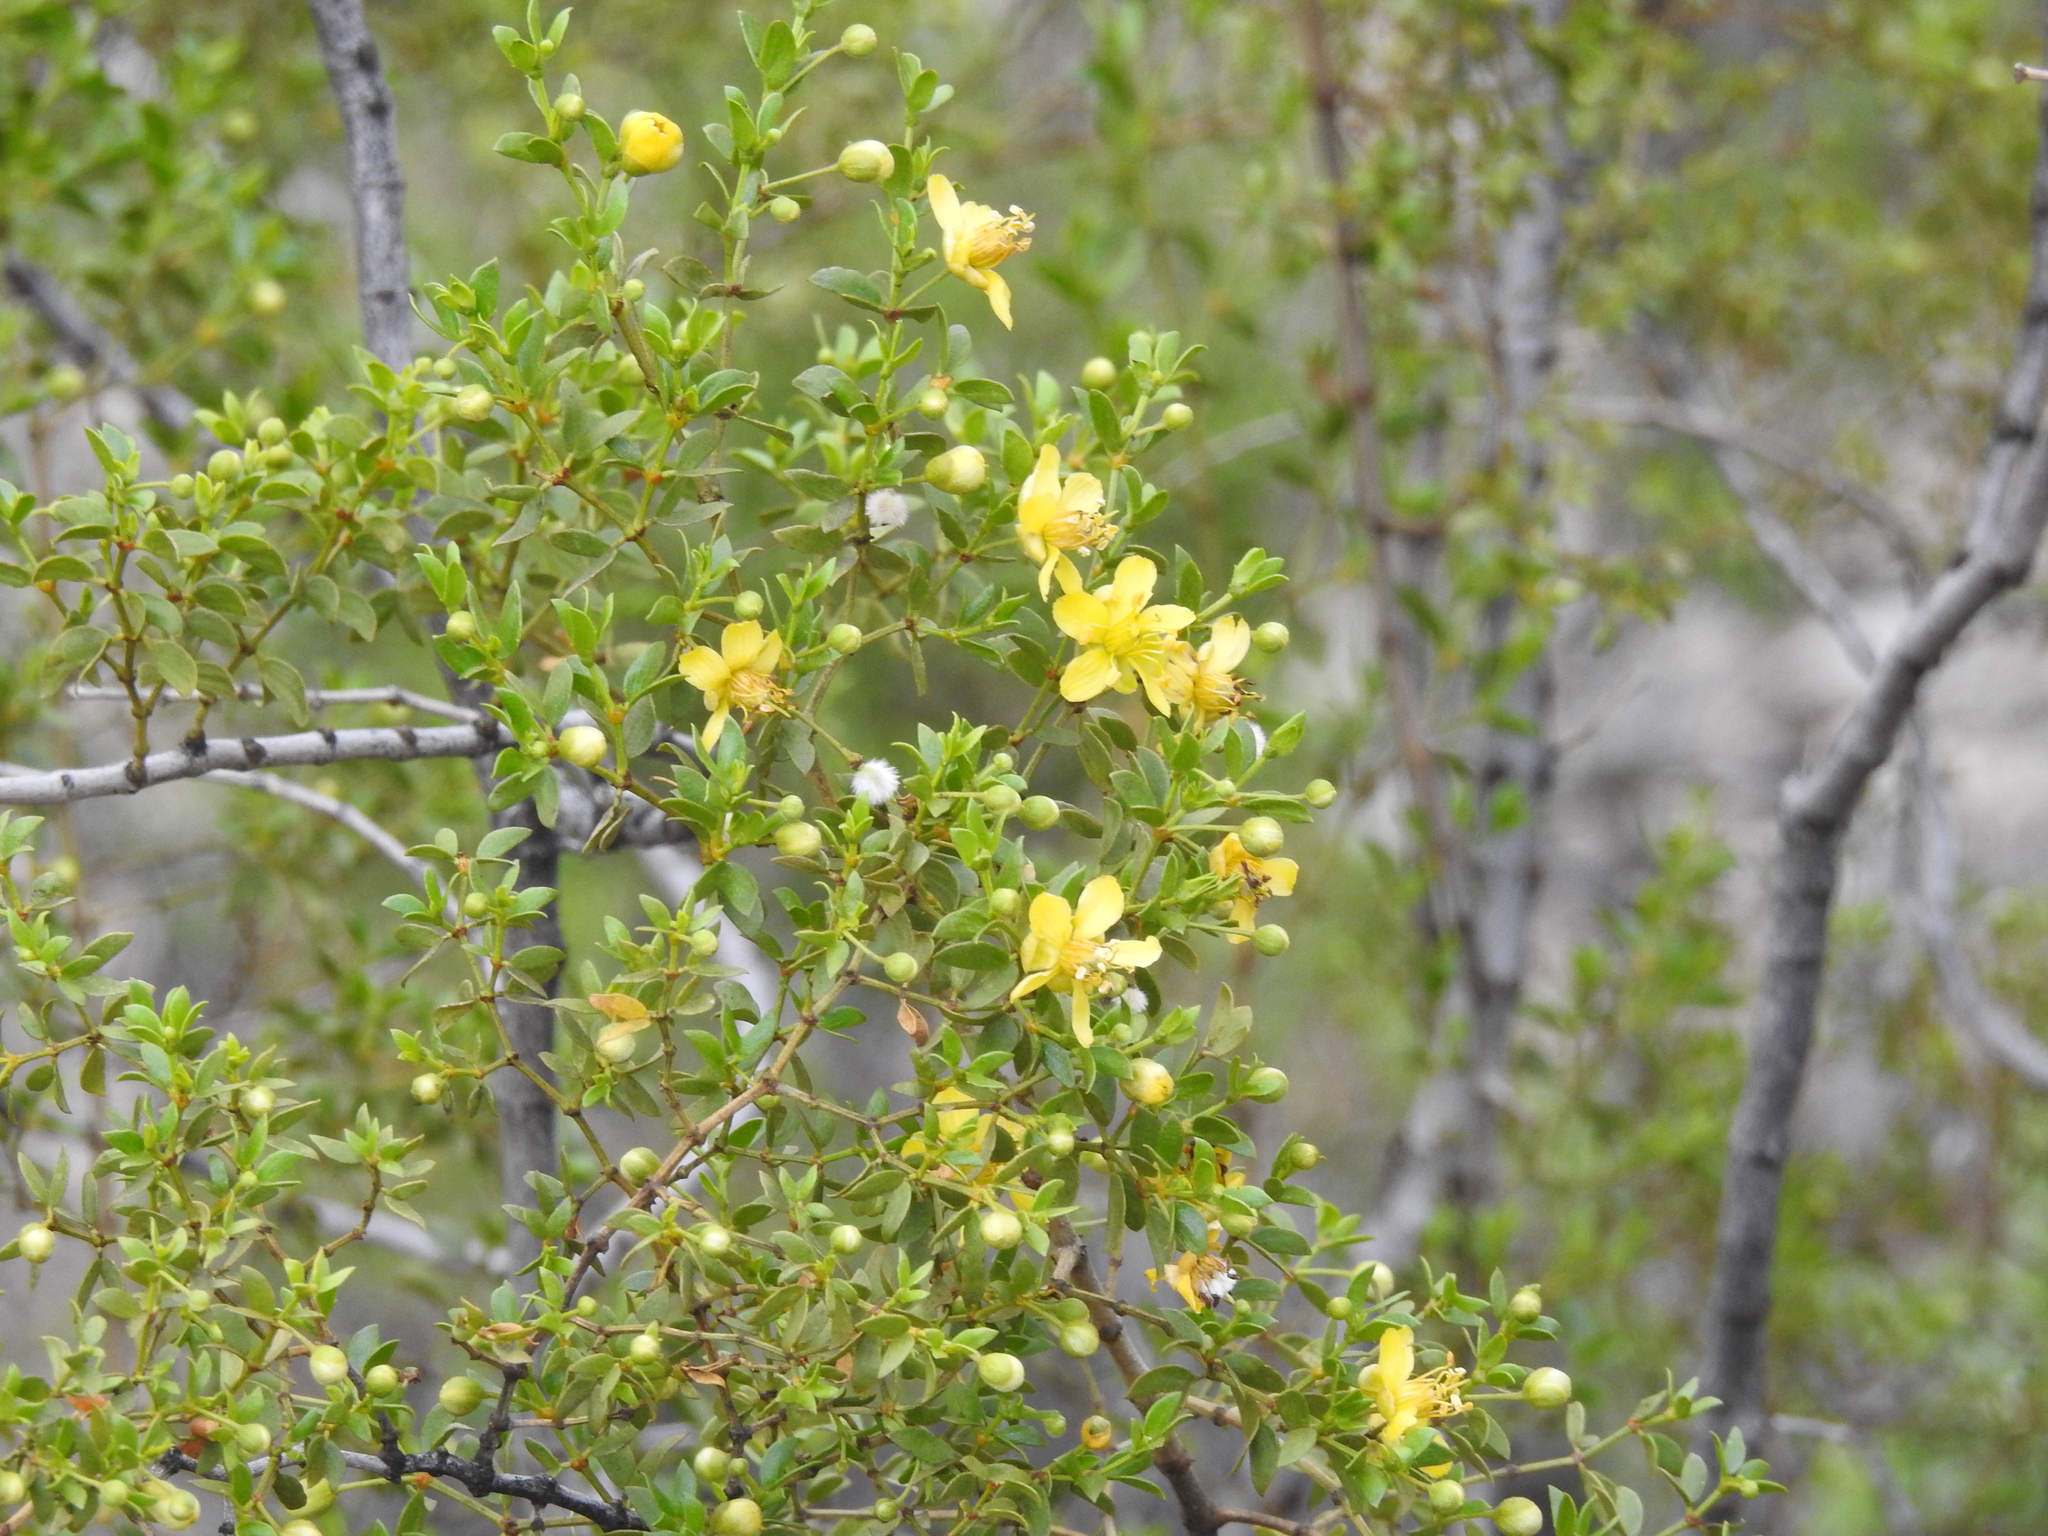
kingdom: Plantae
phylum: Tracheophyta
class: Magnoliopsida
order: Zygophyllales
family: Zygophyllaceae
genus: Larrea
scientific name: Larrea tridentata
